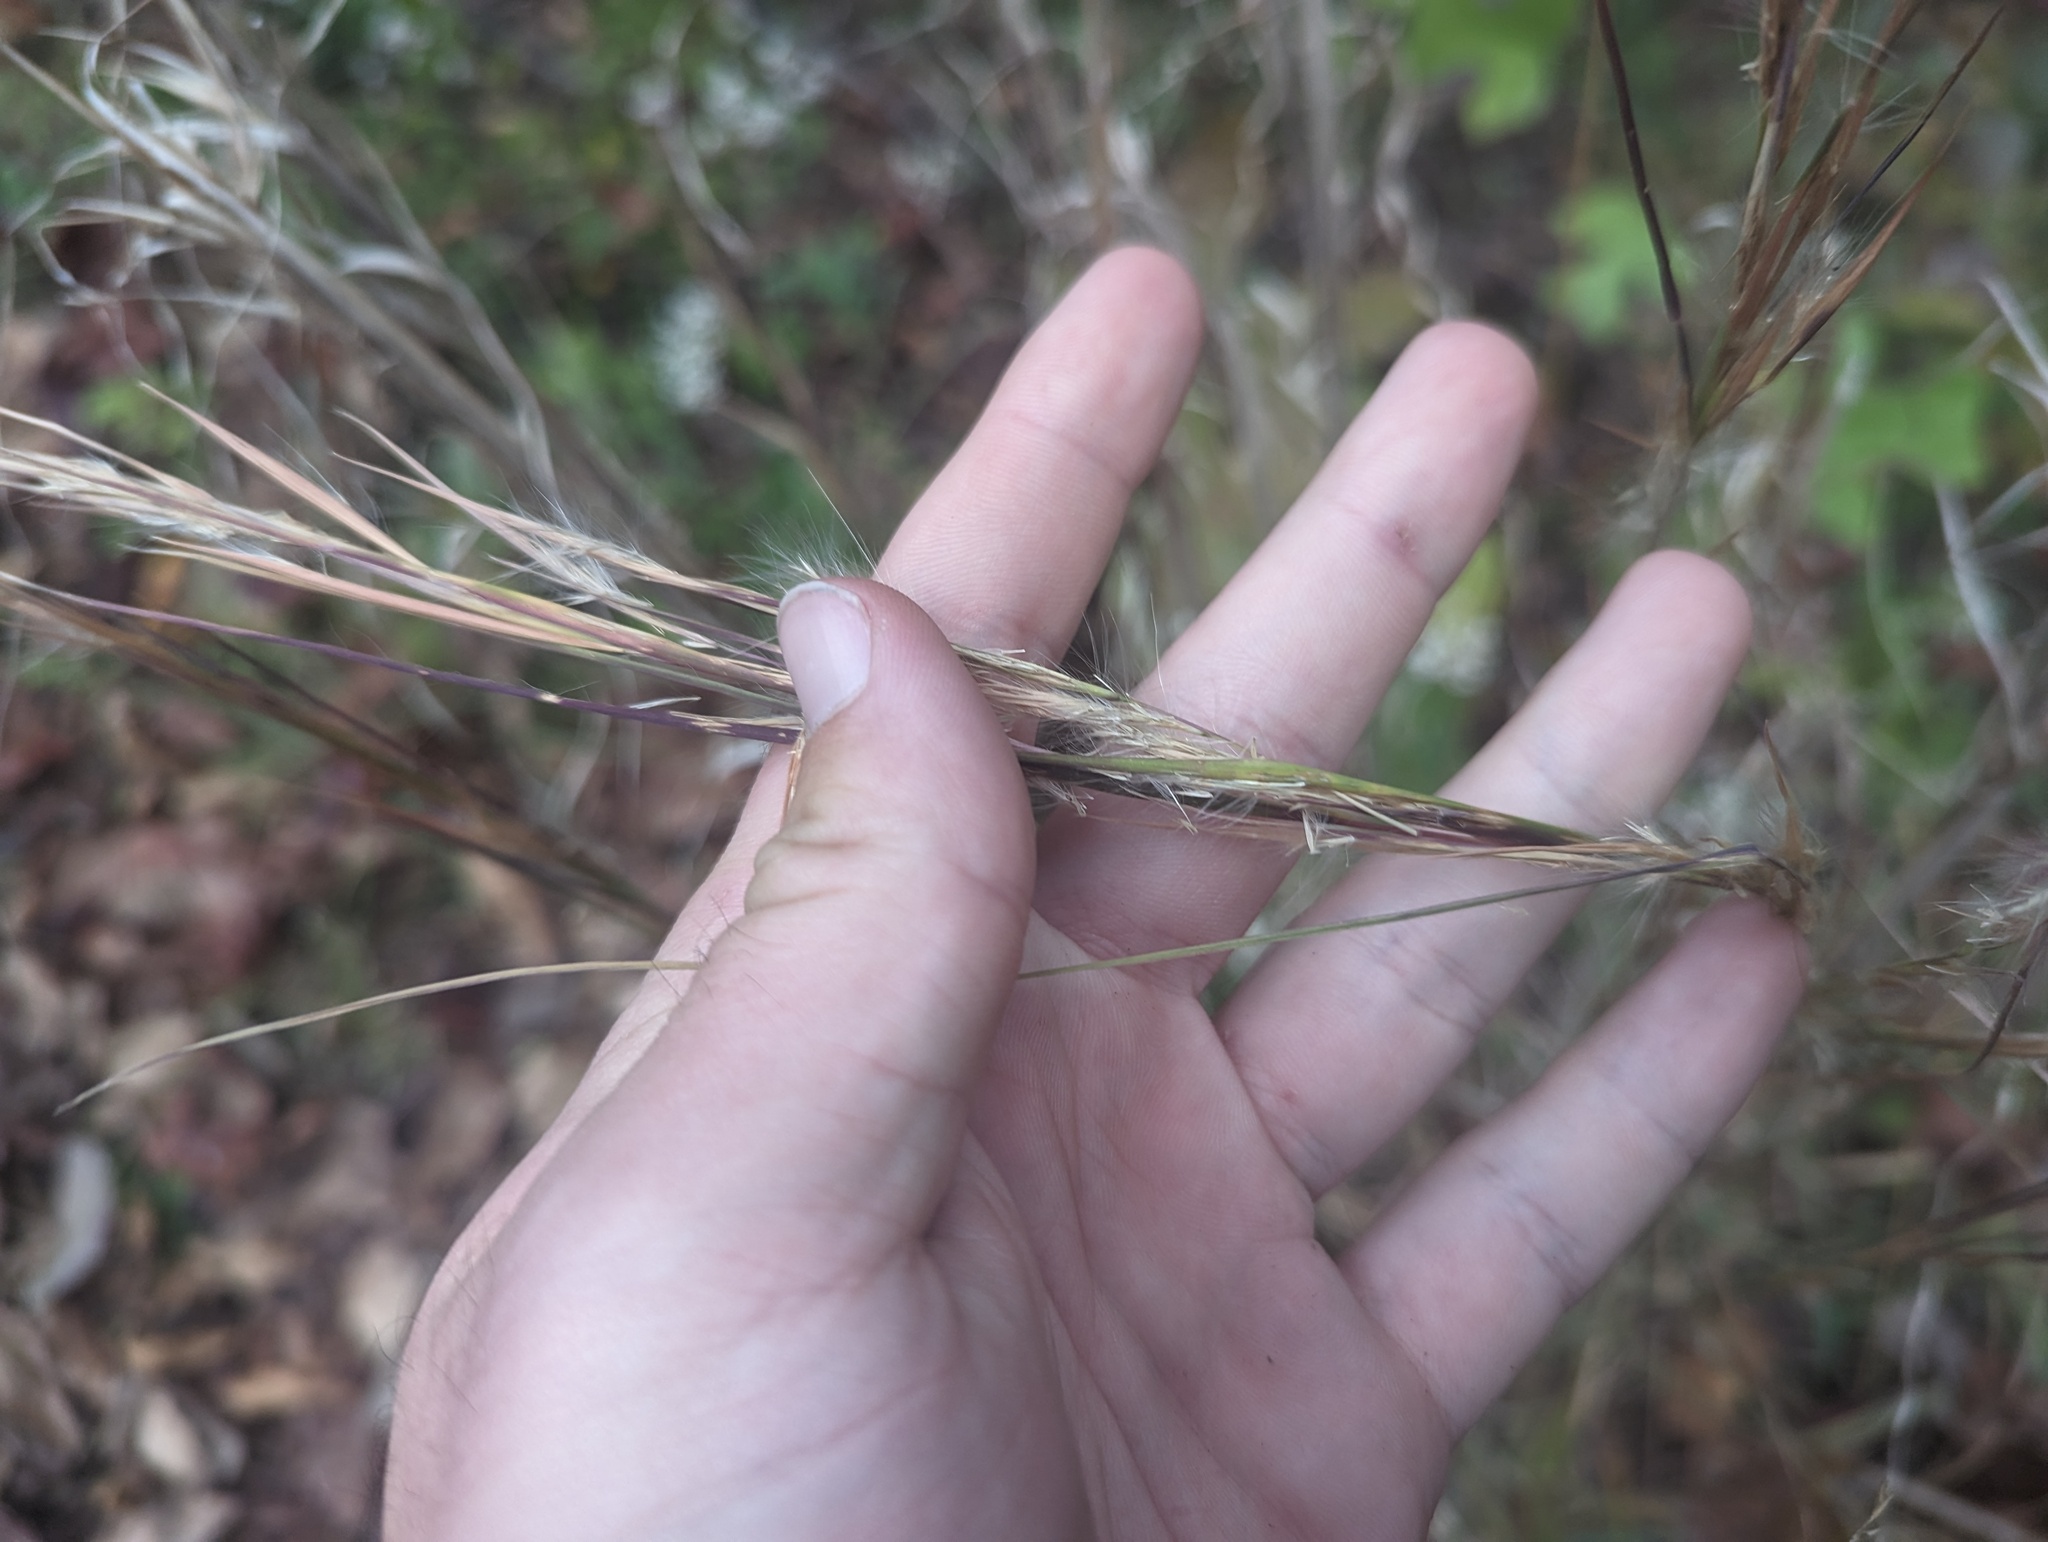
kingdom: Plantae
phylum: Tracheophyta
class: Liliopsida
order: Poales
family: Poaceae
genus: Andropogon
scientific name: Andropogon virginicus
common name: Broomsedge bluestem
